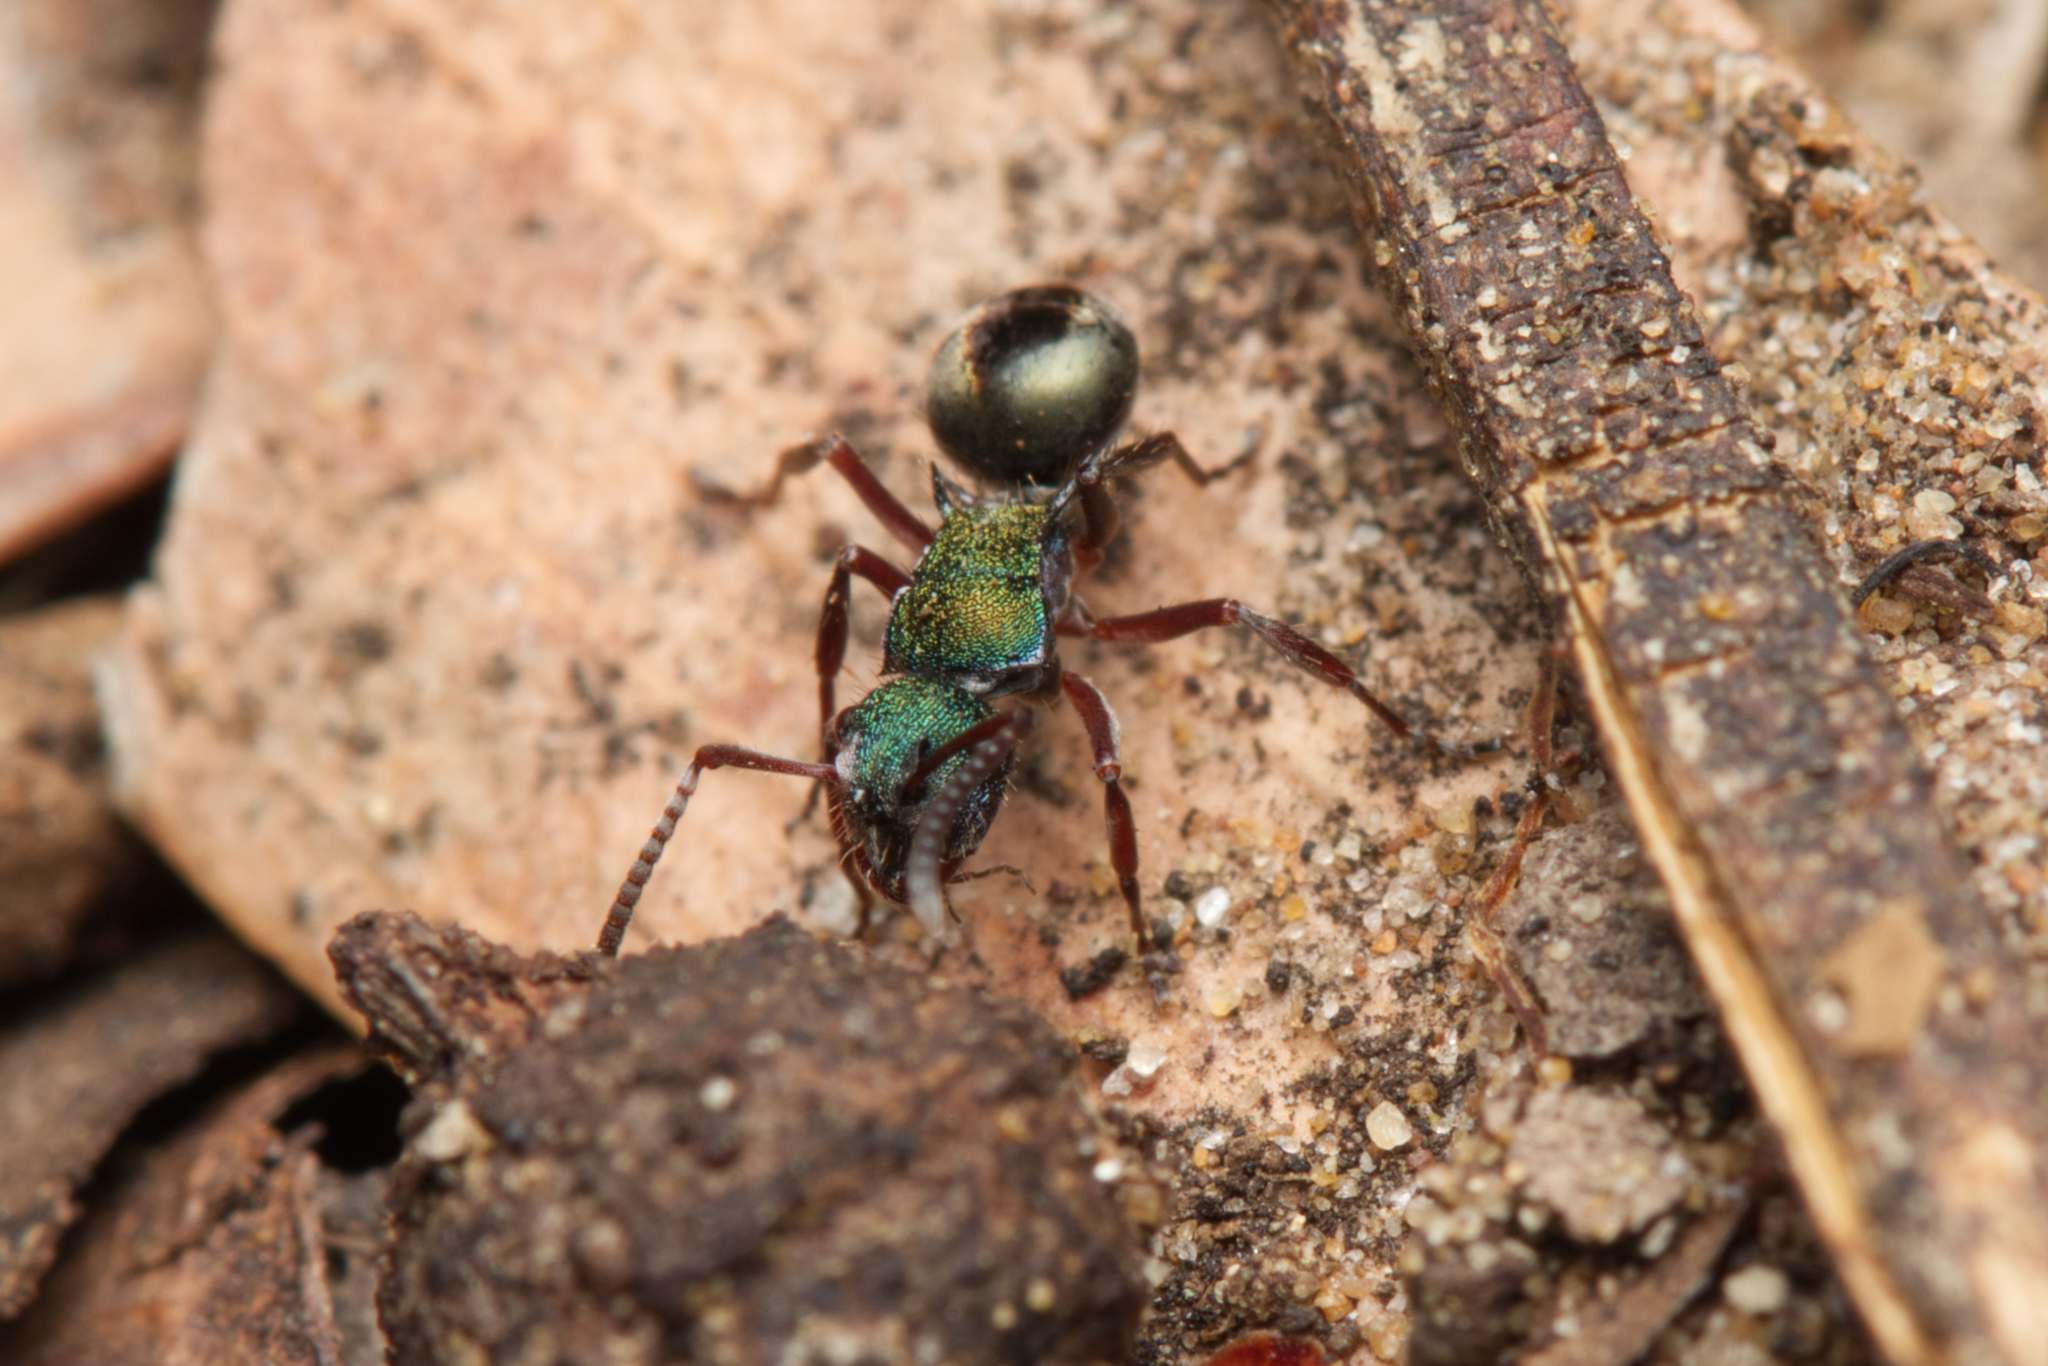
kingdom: Animalia
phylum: Arthropoda
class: Insecta
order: Hymenoptera
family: Formicidae
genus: Polyrhachis
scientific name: Polyrhachis hookeri
